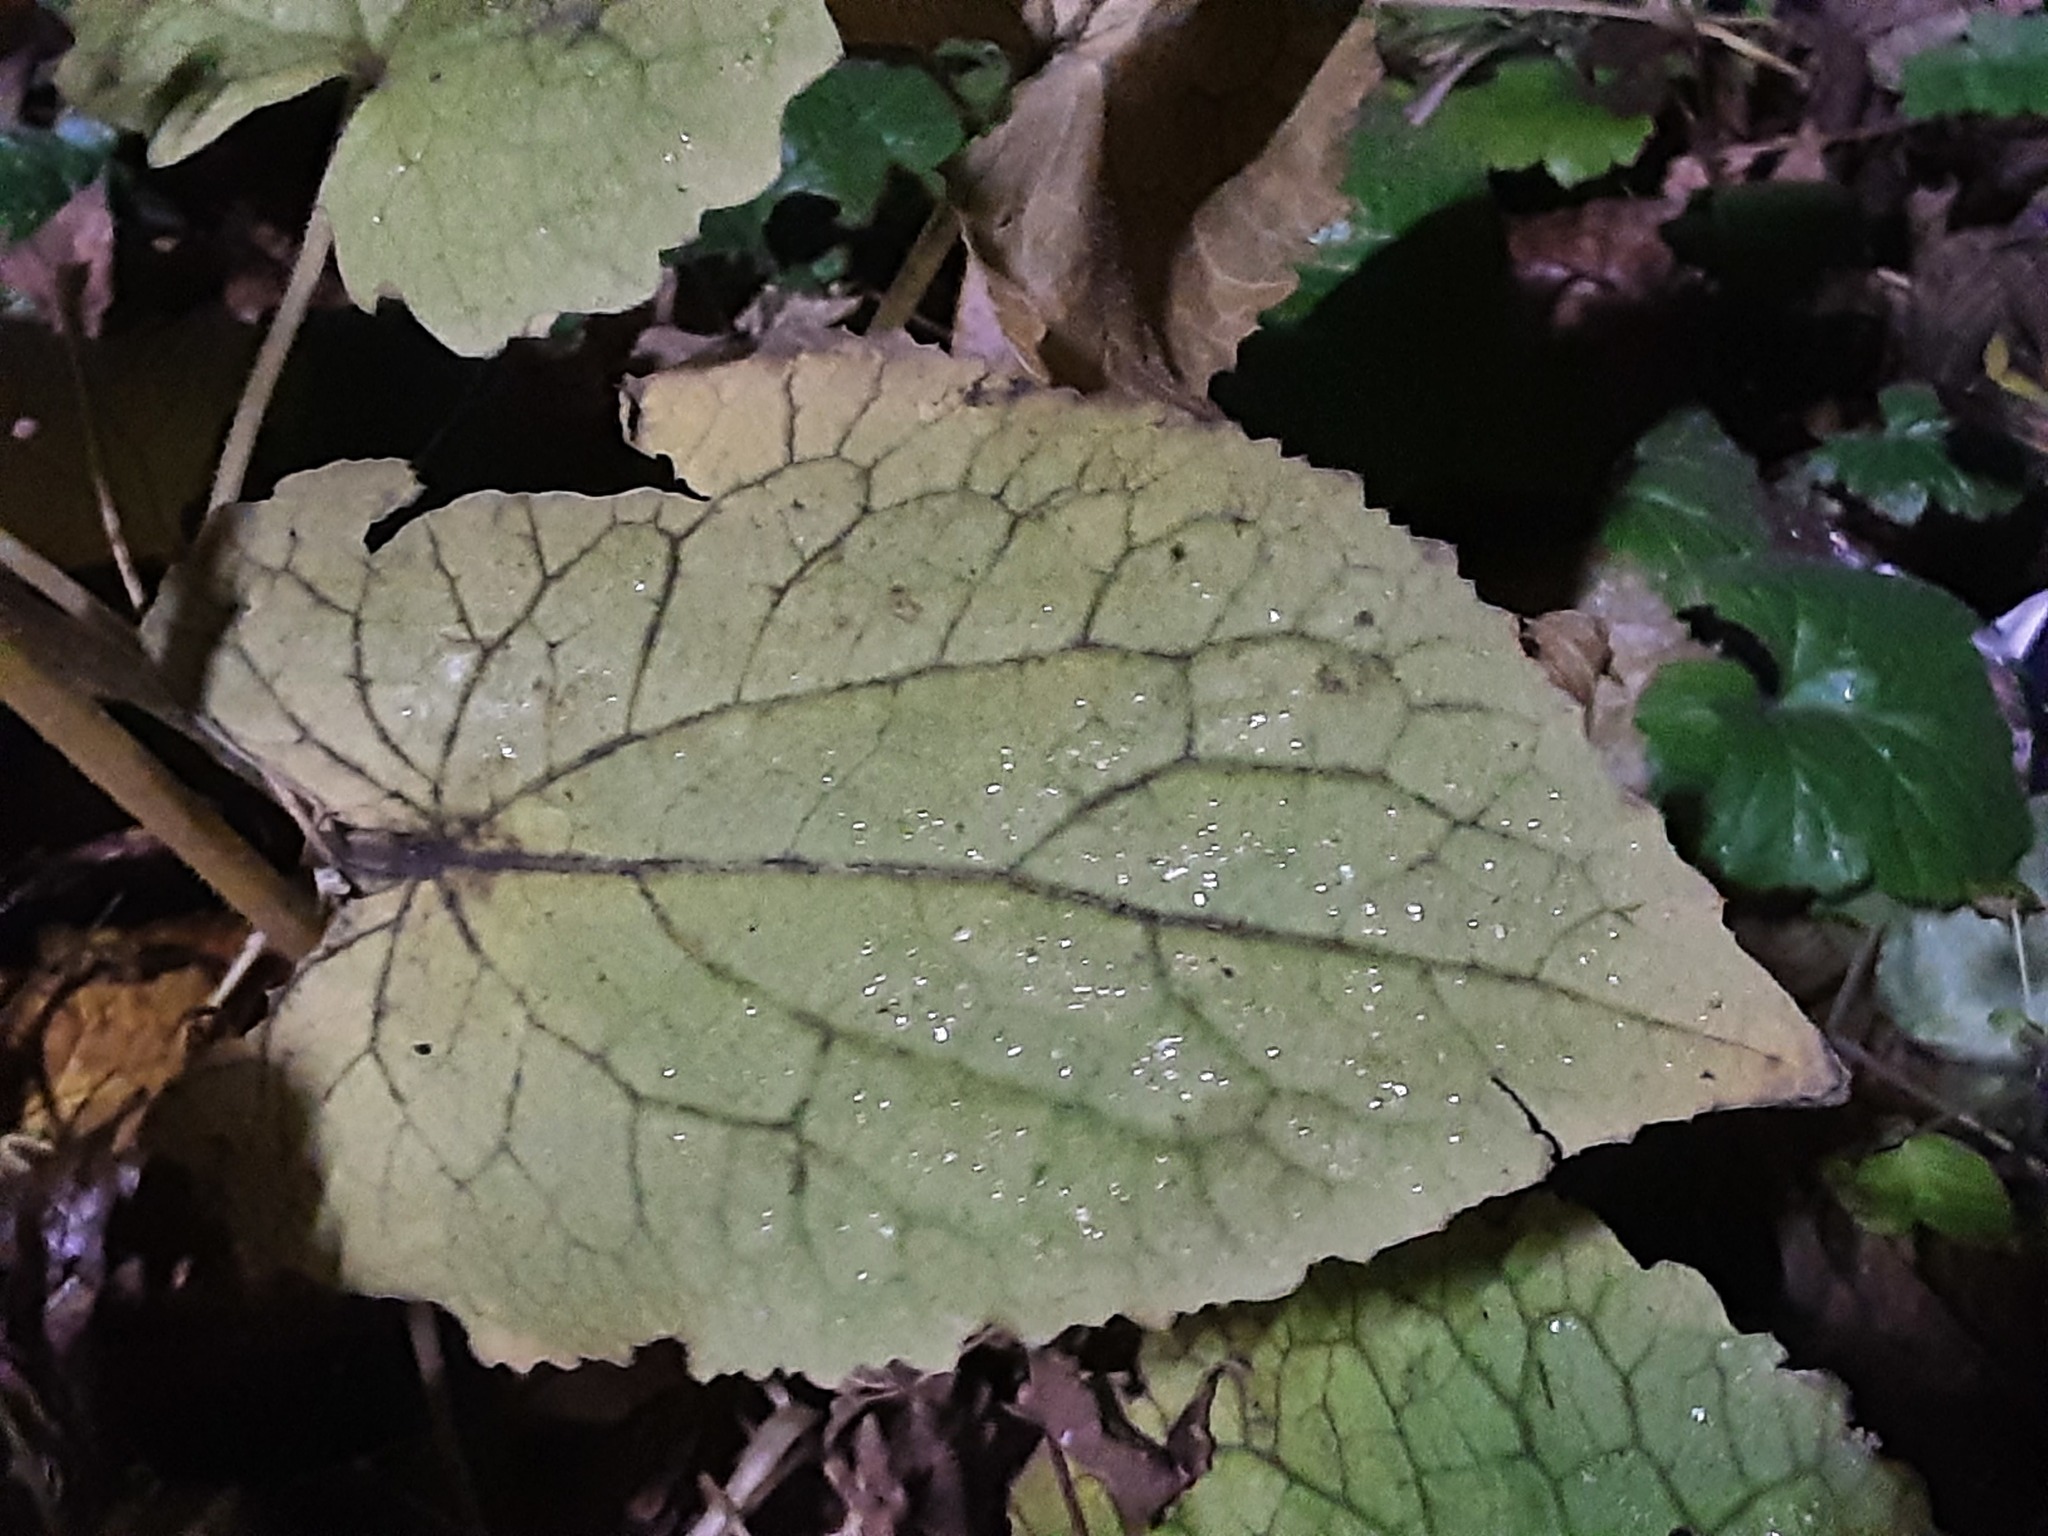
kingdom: Plantae
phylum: Tracheophyta
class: Magnoliopsida
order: Brassicales
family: Brassicaceae
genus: Lunaria
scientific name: Lunaria rediviva
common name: Perennial honesty
